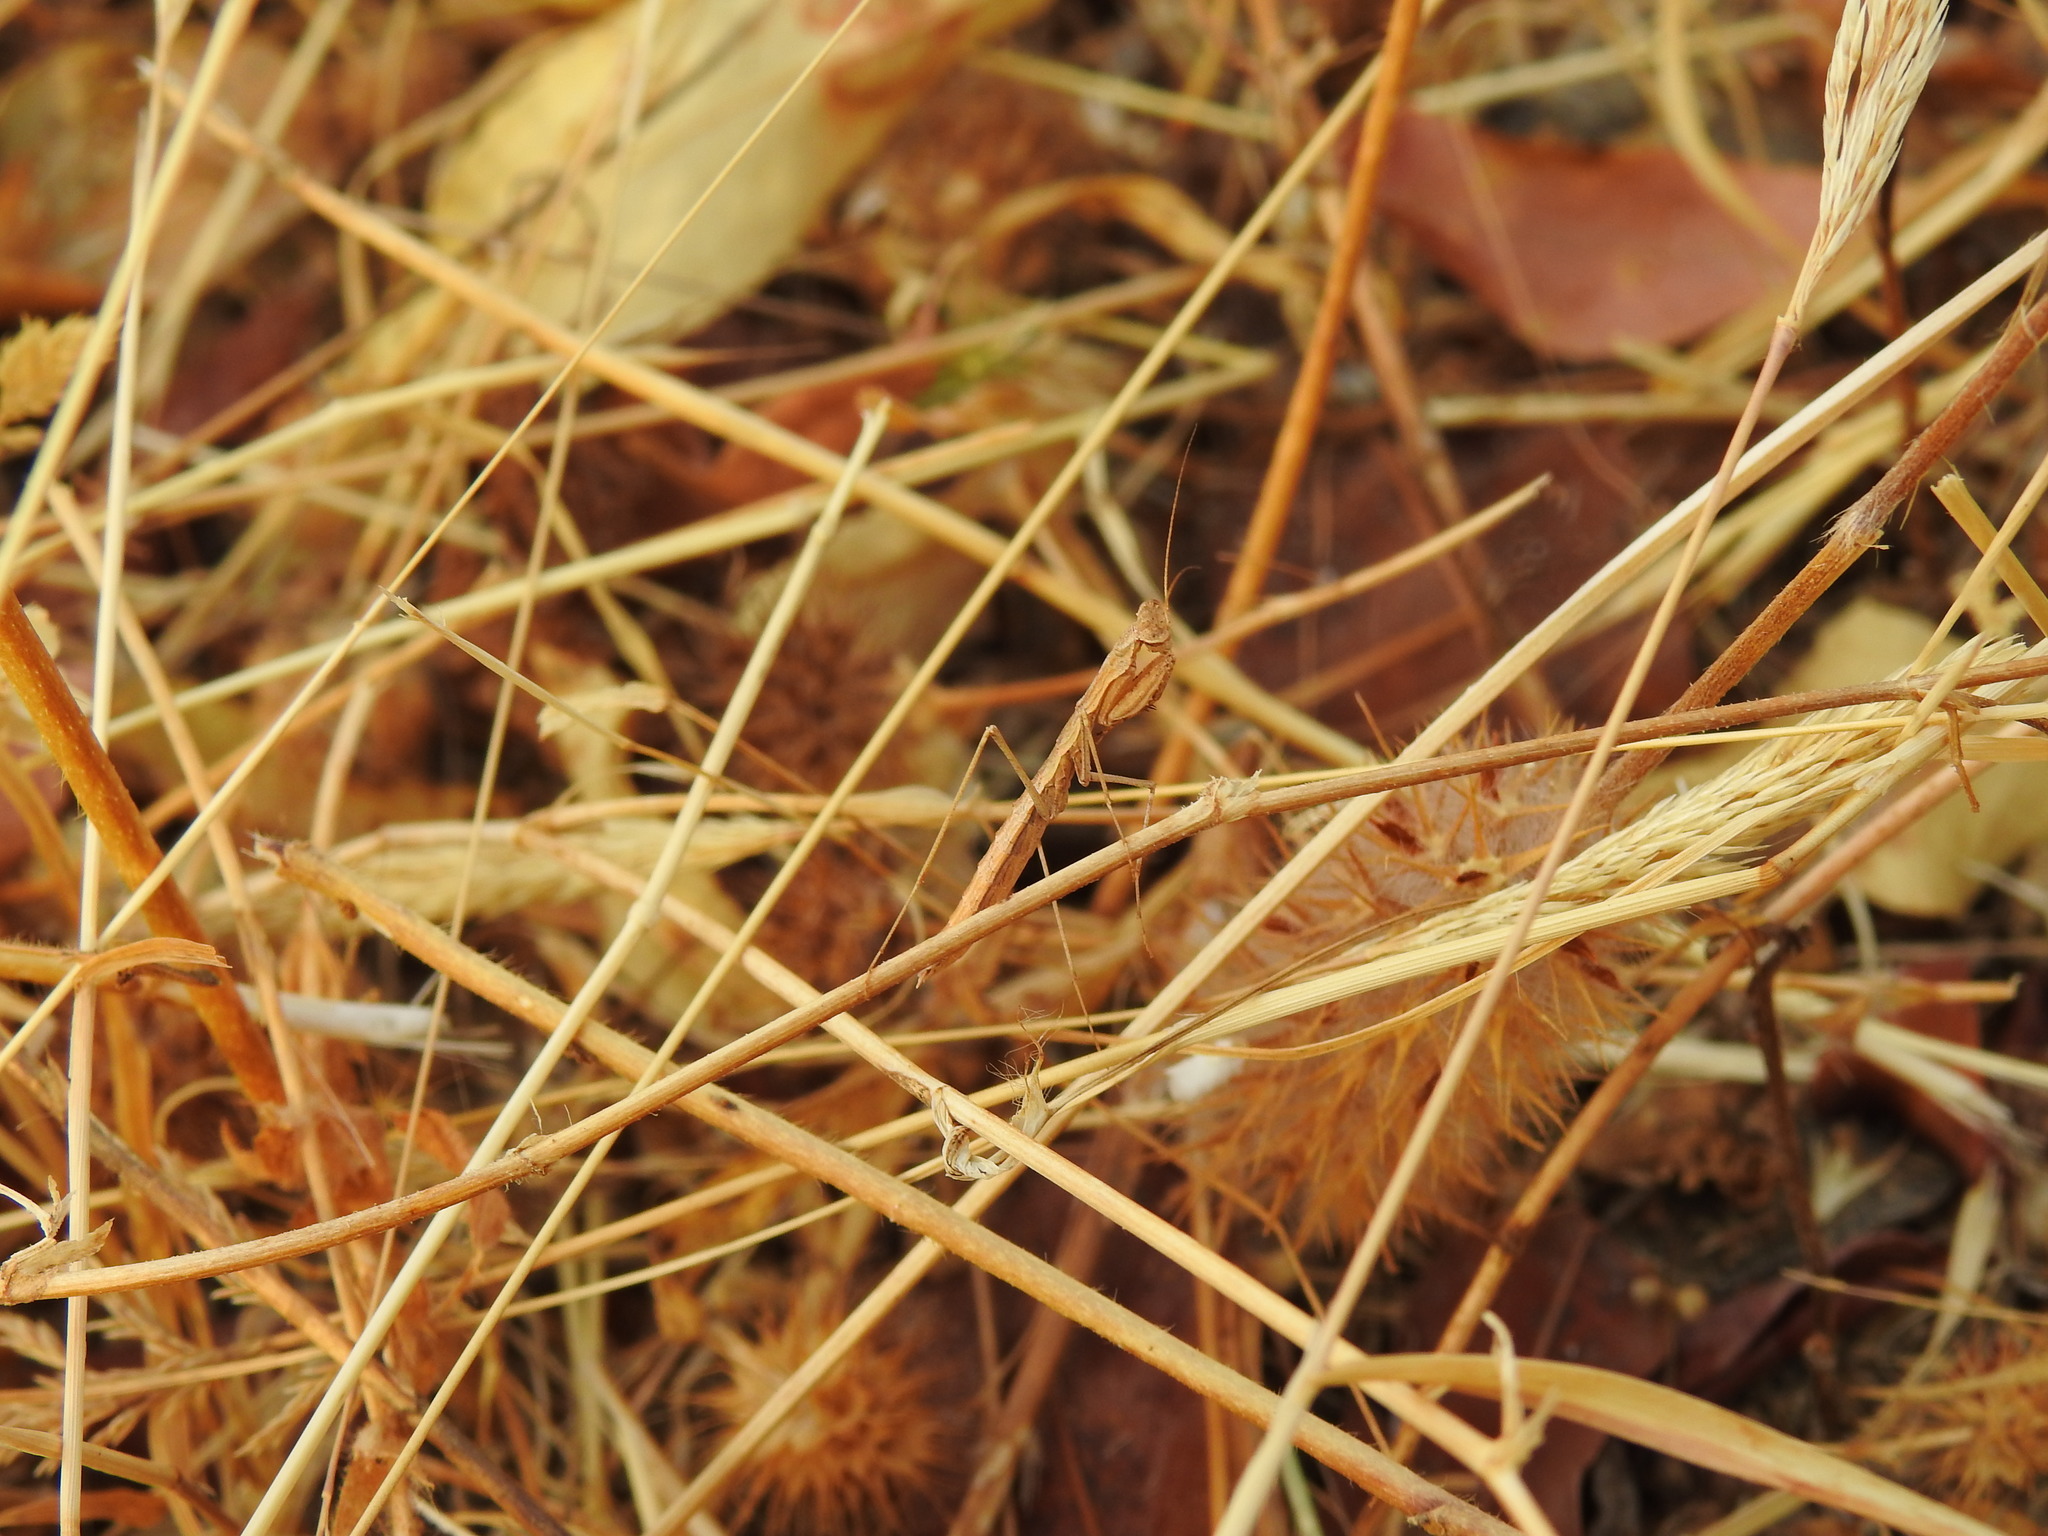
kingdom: Animalia
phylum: Arthropoda
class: Insecta
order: Mantodea
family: Rivetinidae
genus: Geomantis
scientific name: Geomantis larvoides
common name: Wingless ground mantis
